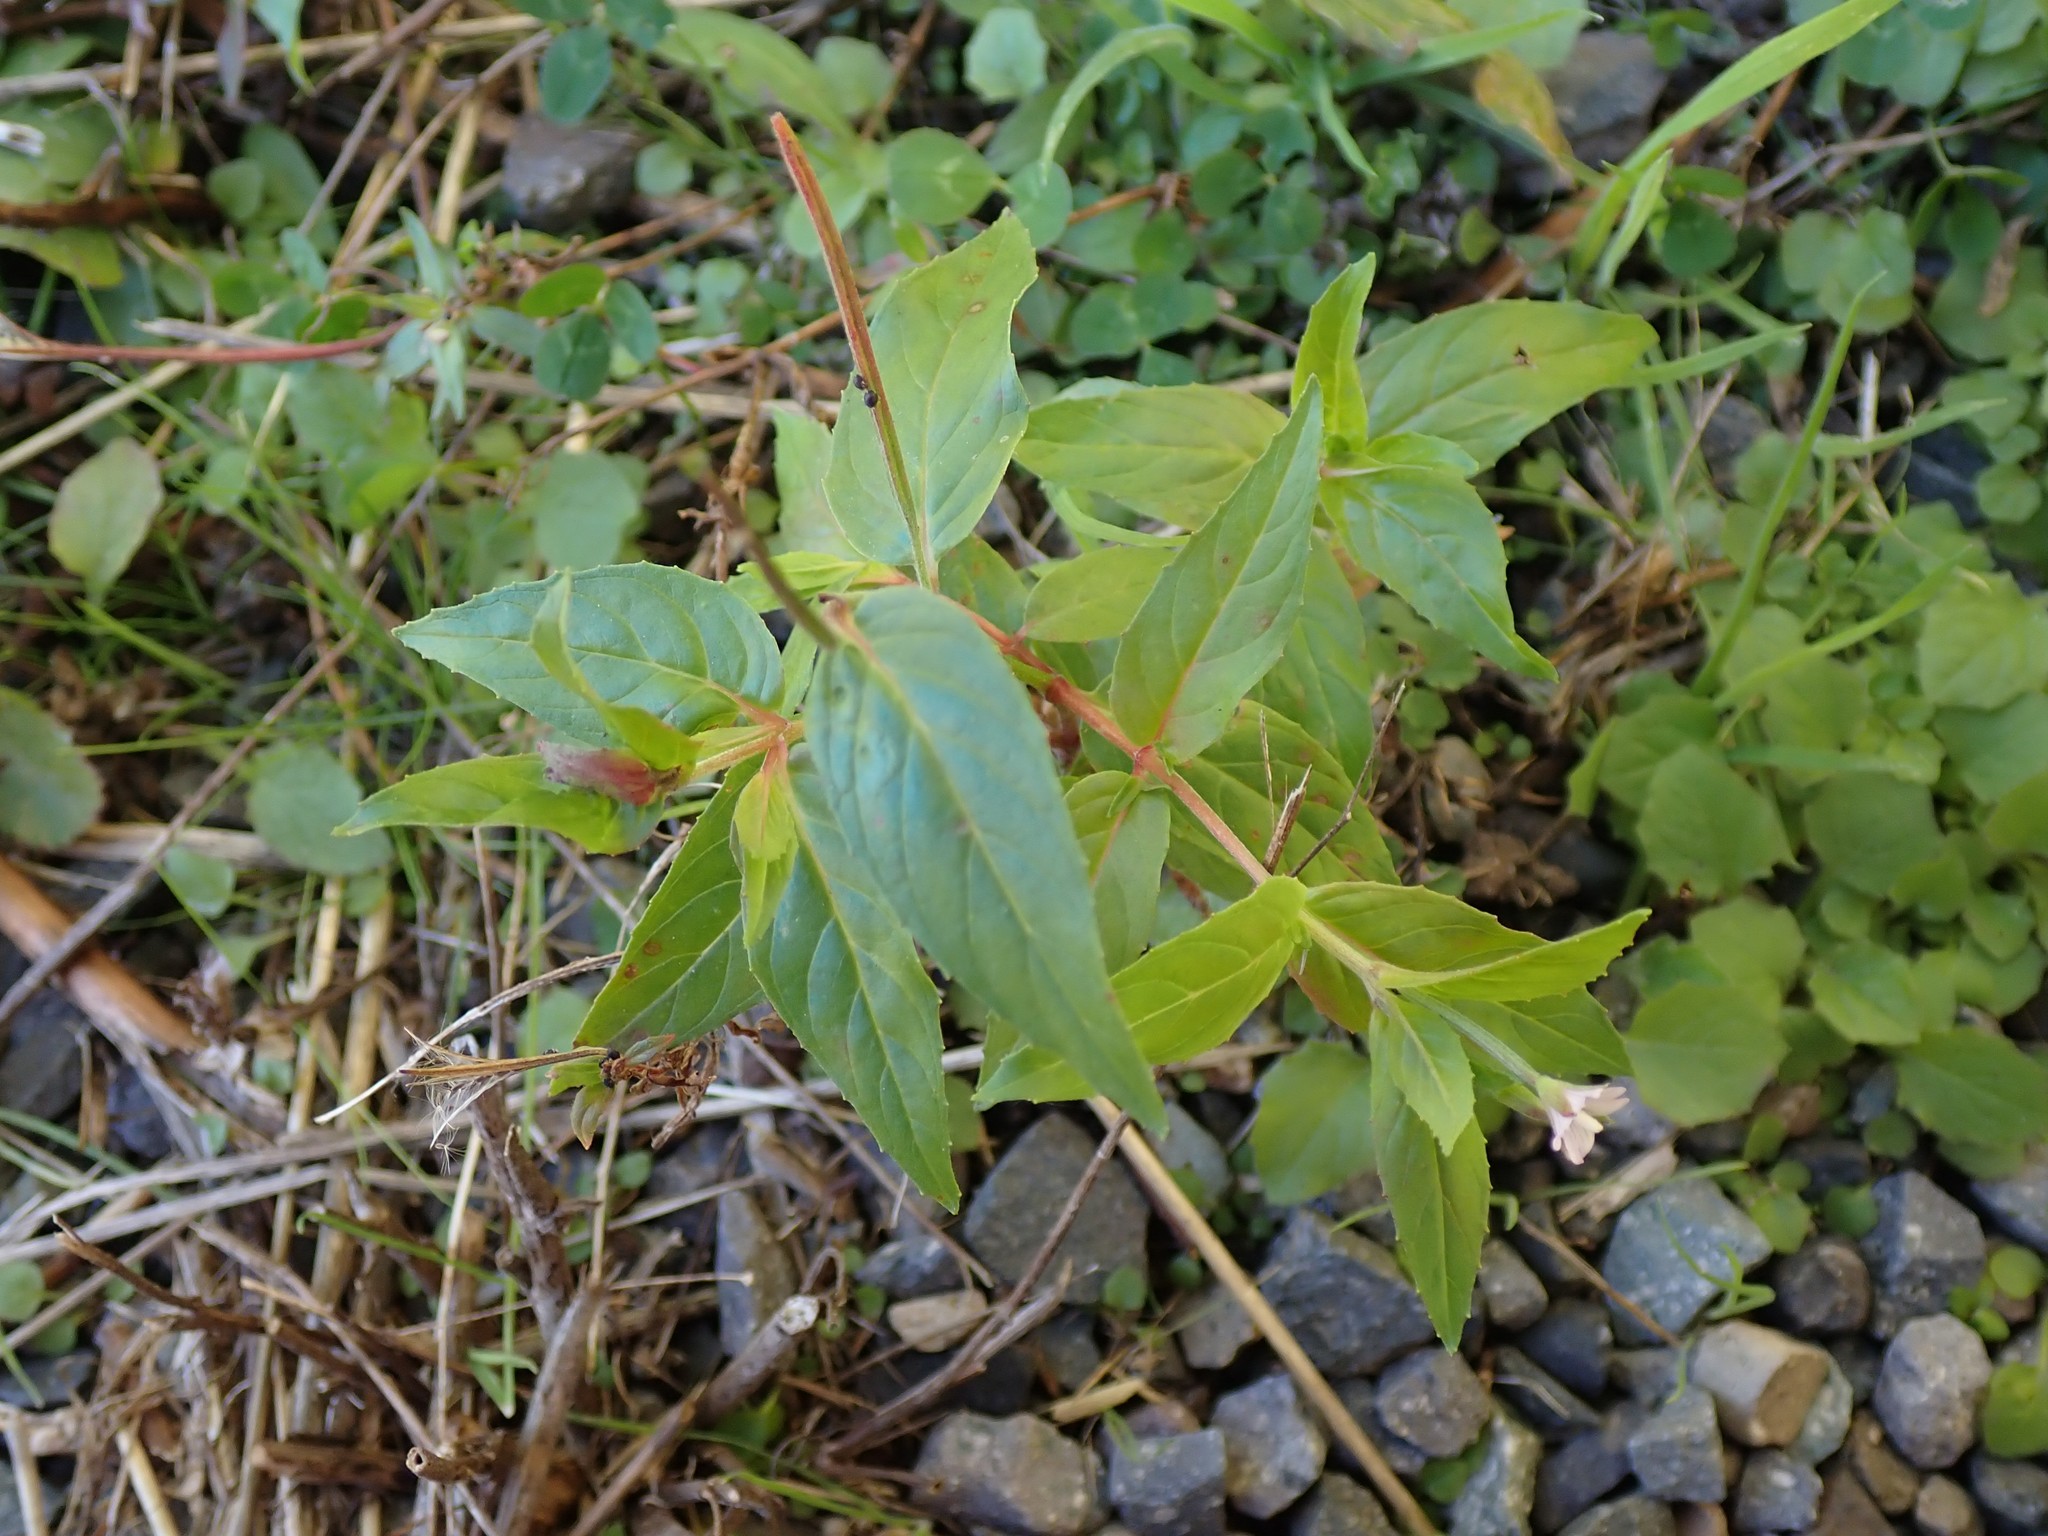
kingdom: Plantae
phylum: Tracheophyta
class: Magnoliopsida
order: Myrtales
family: Onagraceae
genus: Epilobium
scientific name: Epilobium ciliatum
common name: American willowherb
